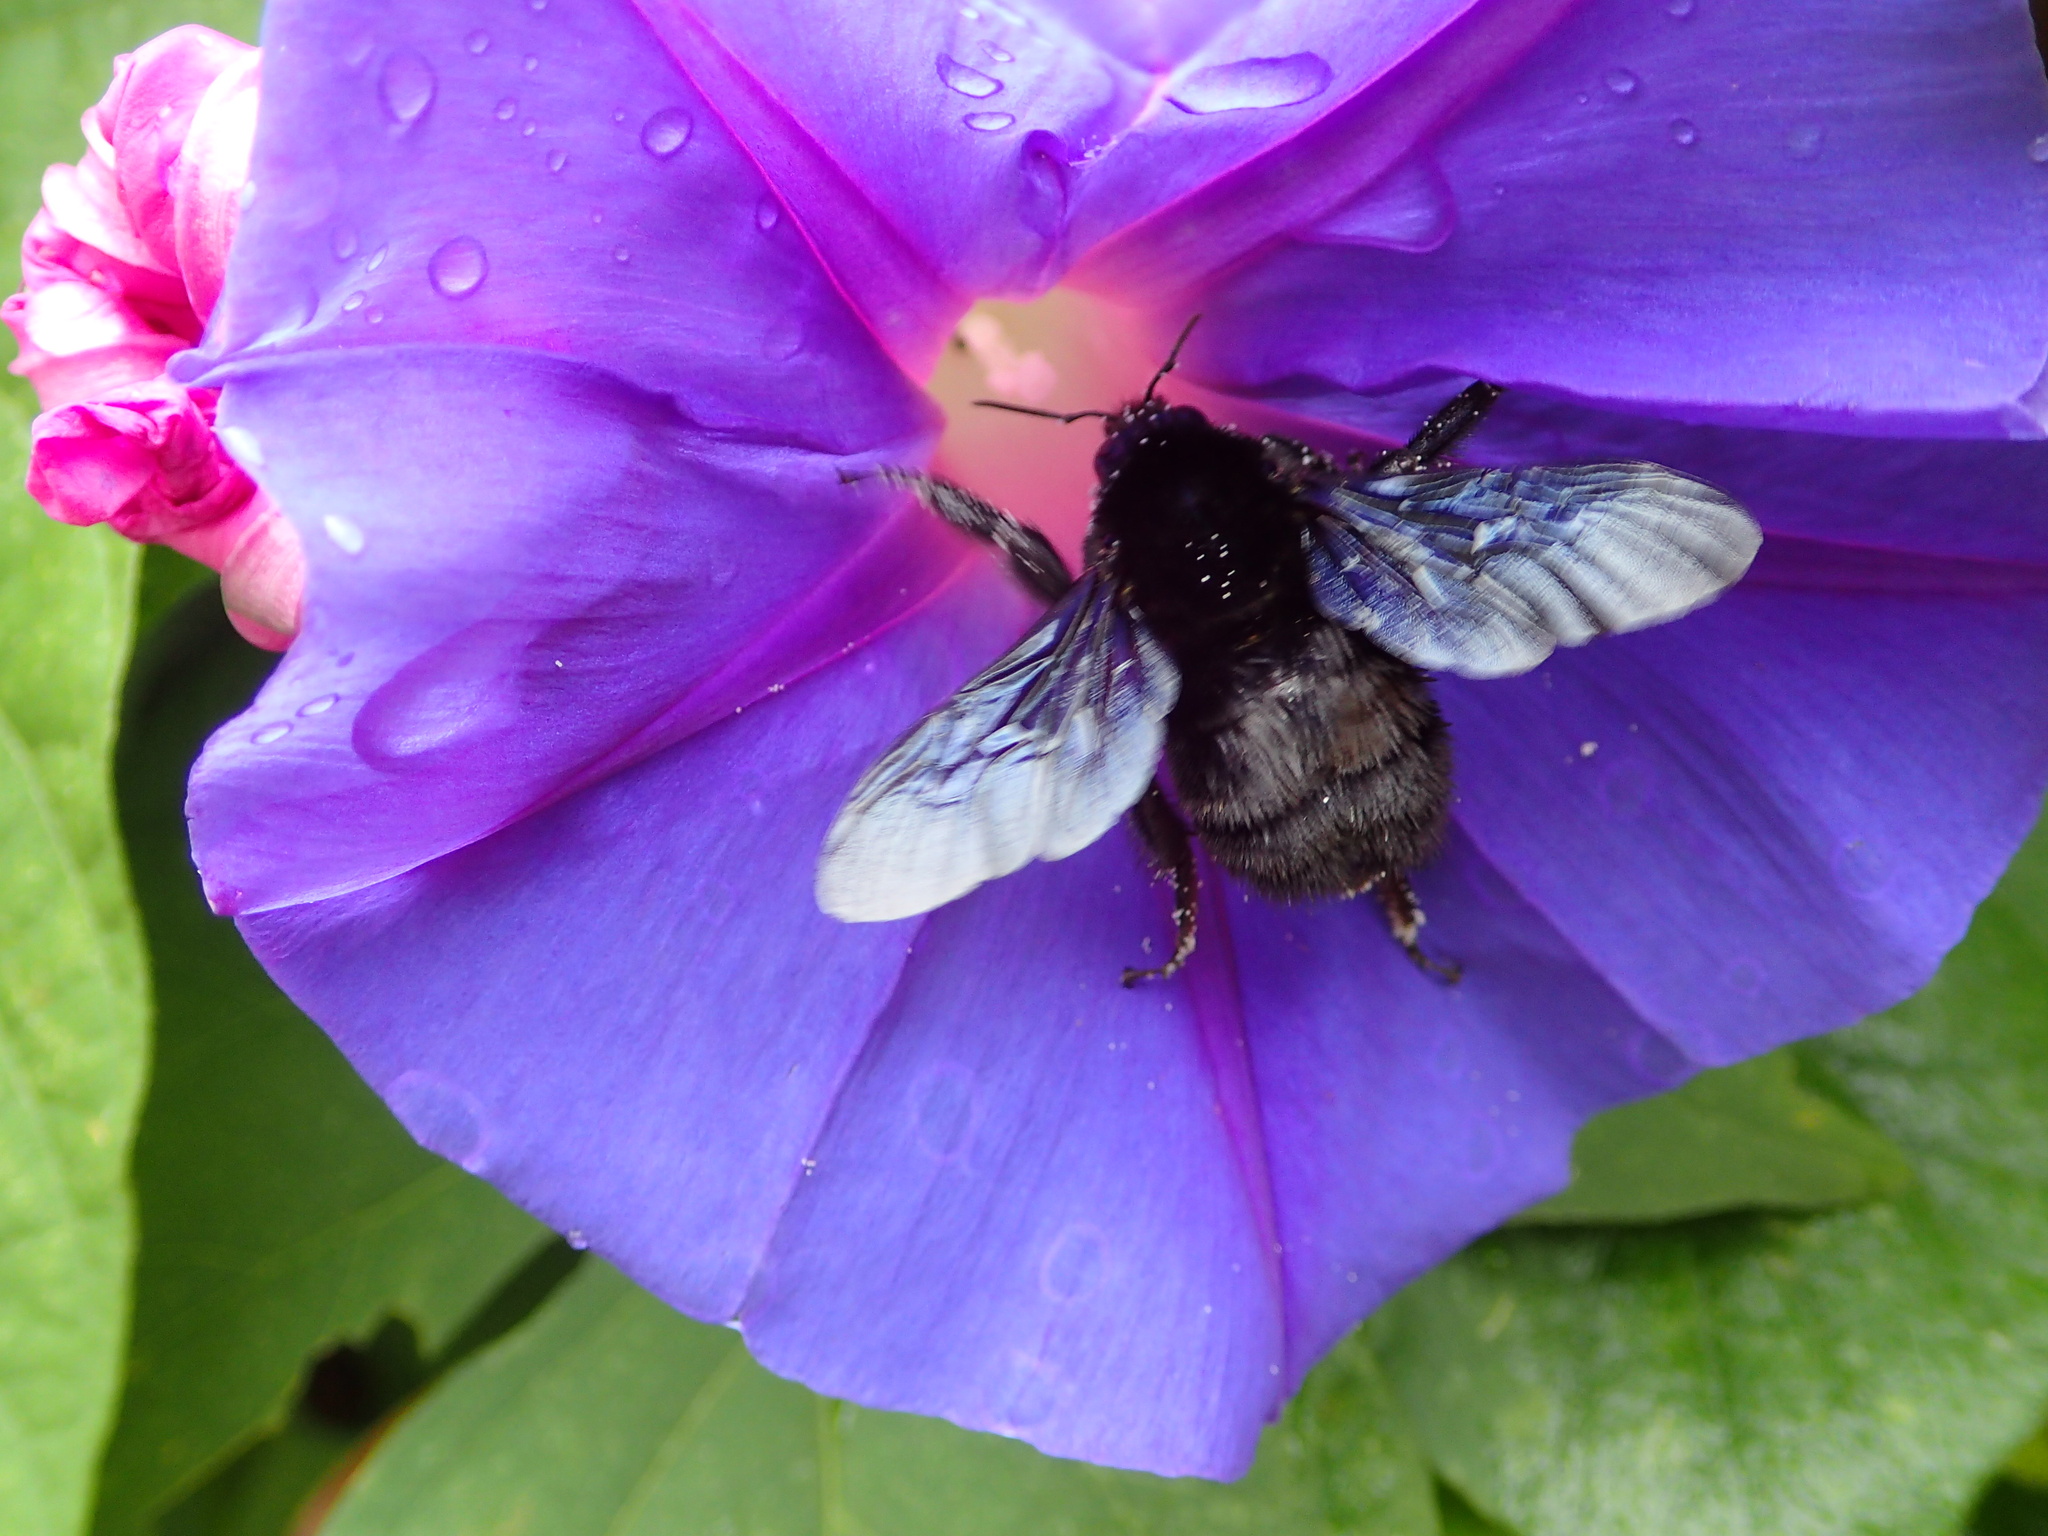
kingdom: Animalia
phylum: Arthropoda
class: Insecta
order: Hymenoptera
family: Apidae
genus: Bombus
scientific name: Bombus pauloensis
